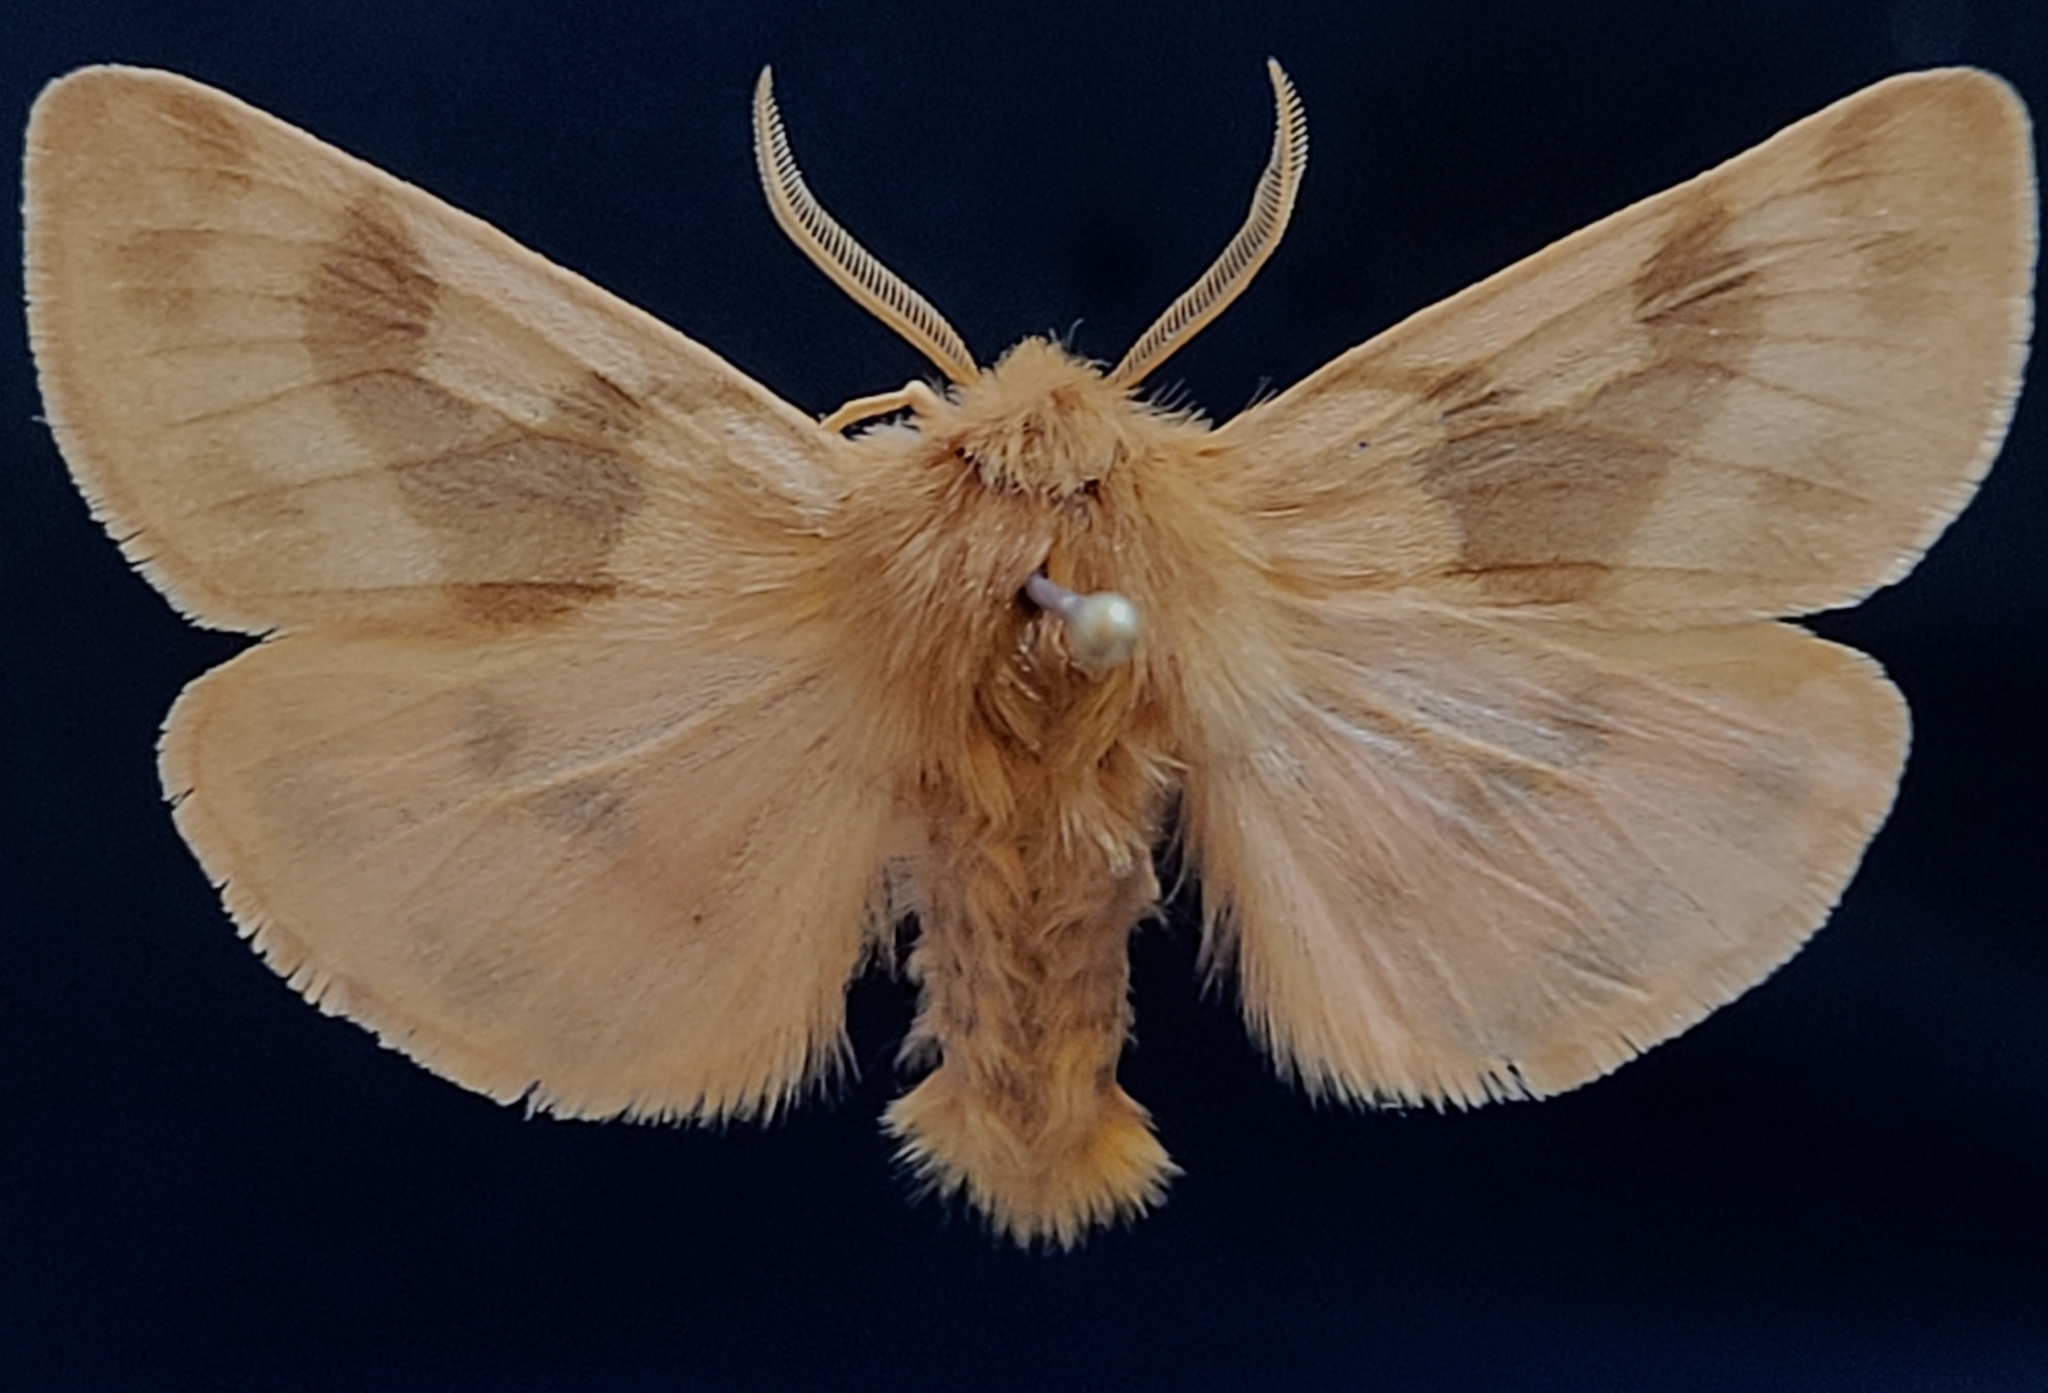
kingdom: Animalia
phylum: Arthropoda
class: Insecta
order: Lepidoptera
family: Erebidae
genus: Chelis
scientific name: Chelis beanii
